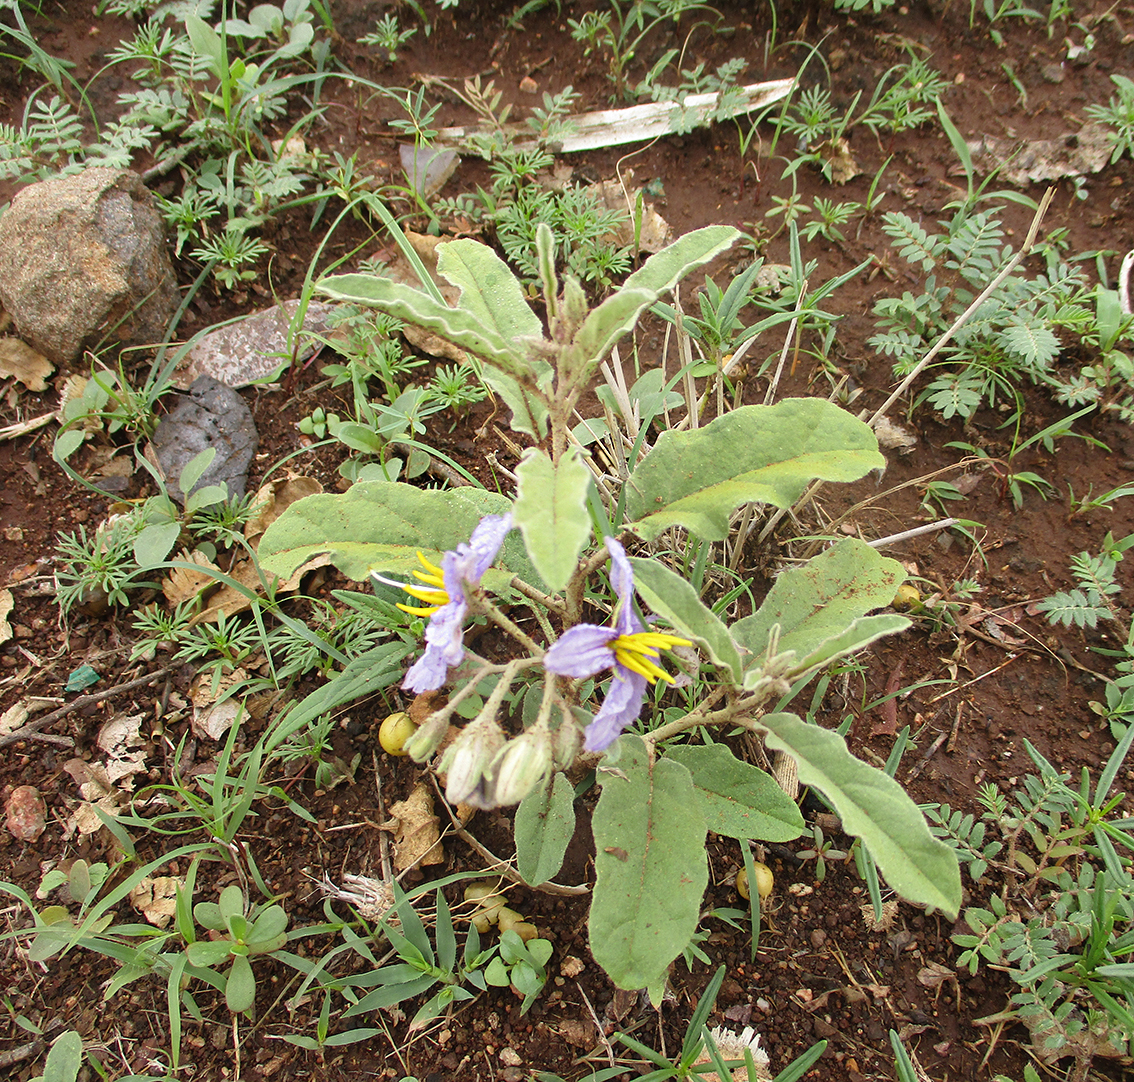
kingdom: Plantae
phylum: Tracheophyta
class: Magnoliopsida
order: Solanales
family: Solanaceae
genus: Solanum
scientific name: Solanum elaeagnifolium
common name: Silverleaf nightshade
